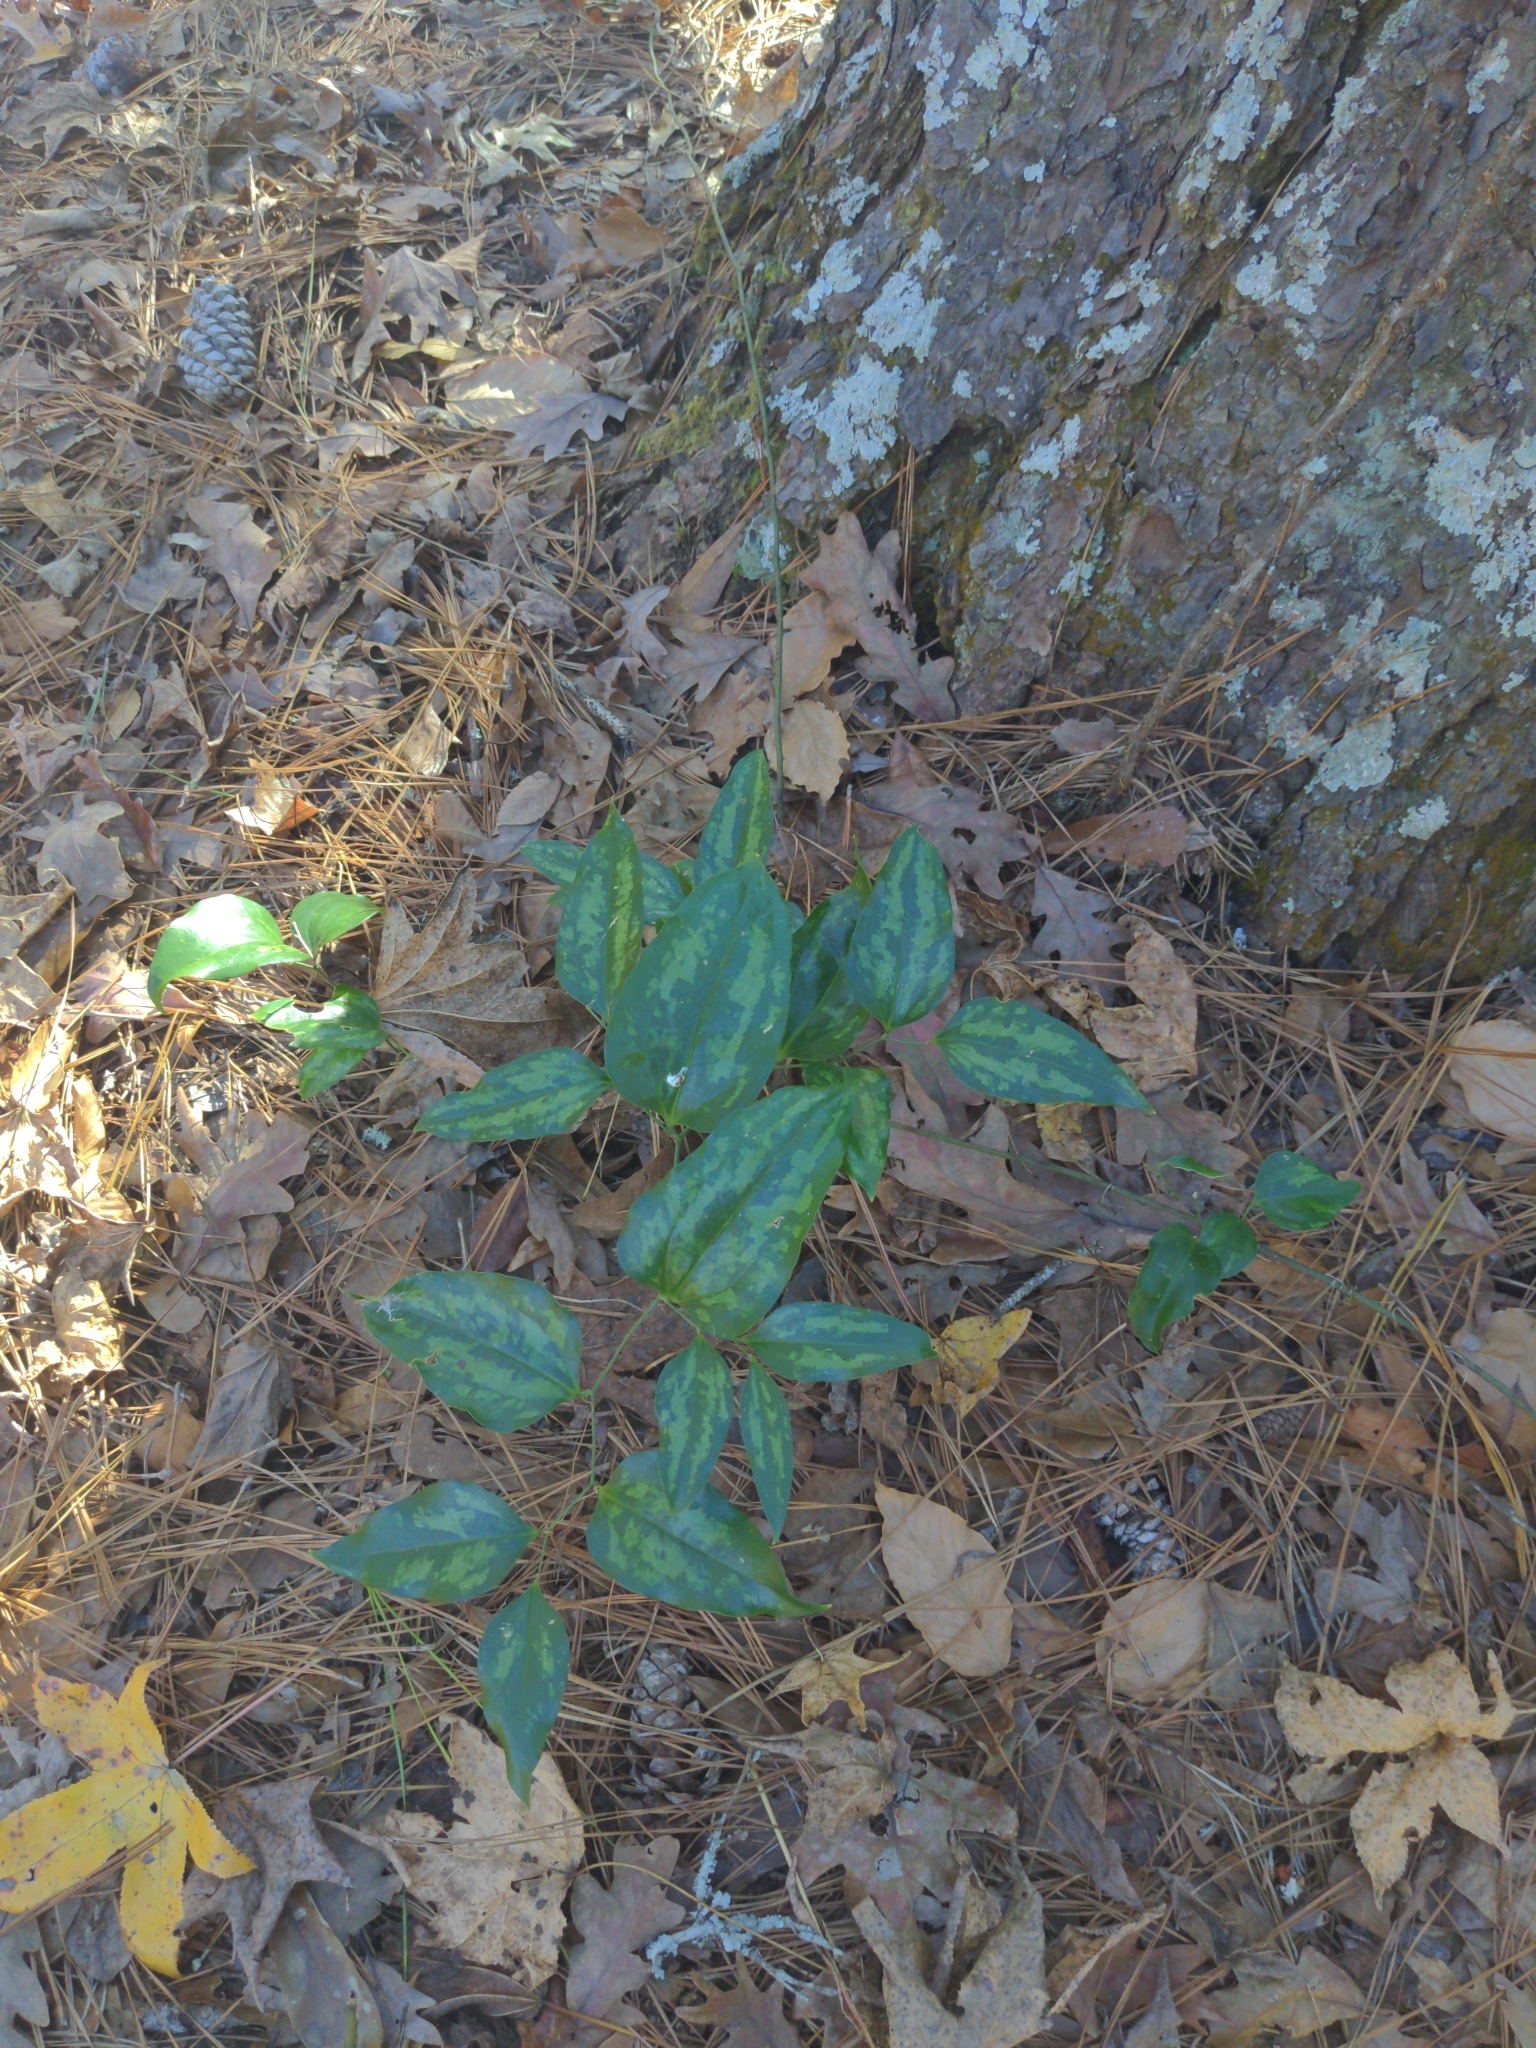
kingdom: Plantae
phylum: Tracheophyta
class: Liliopsida
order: Liliales
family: Smilacaceae
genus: Smilax
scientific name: Smilax maritima
